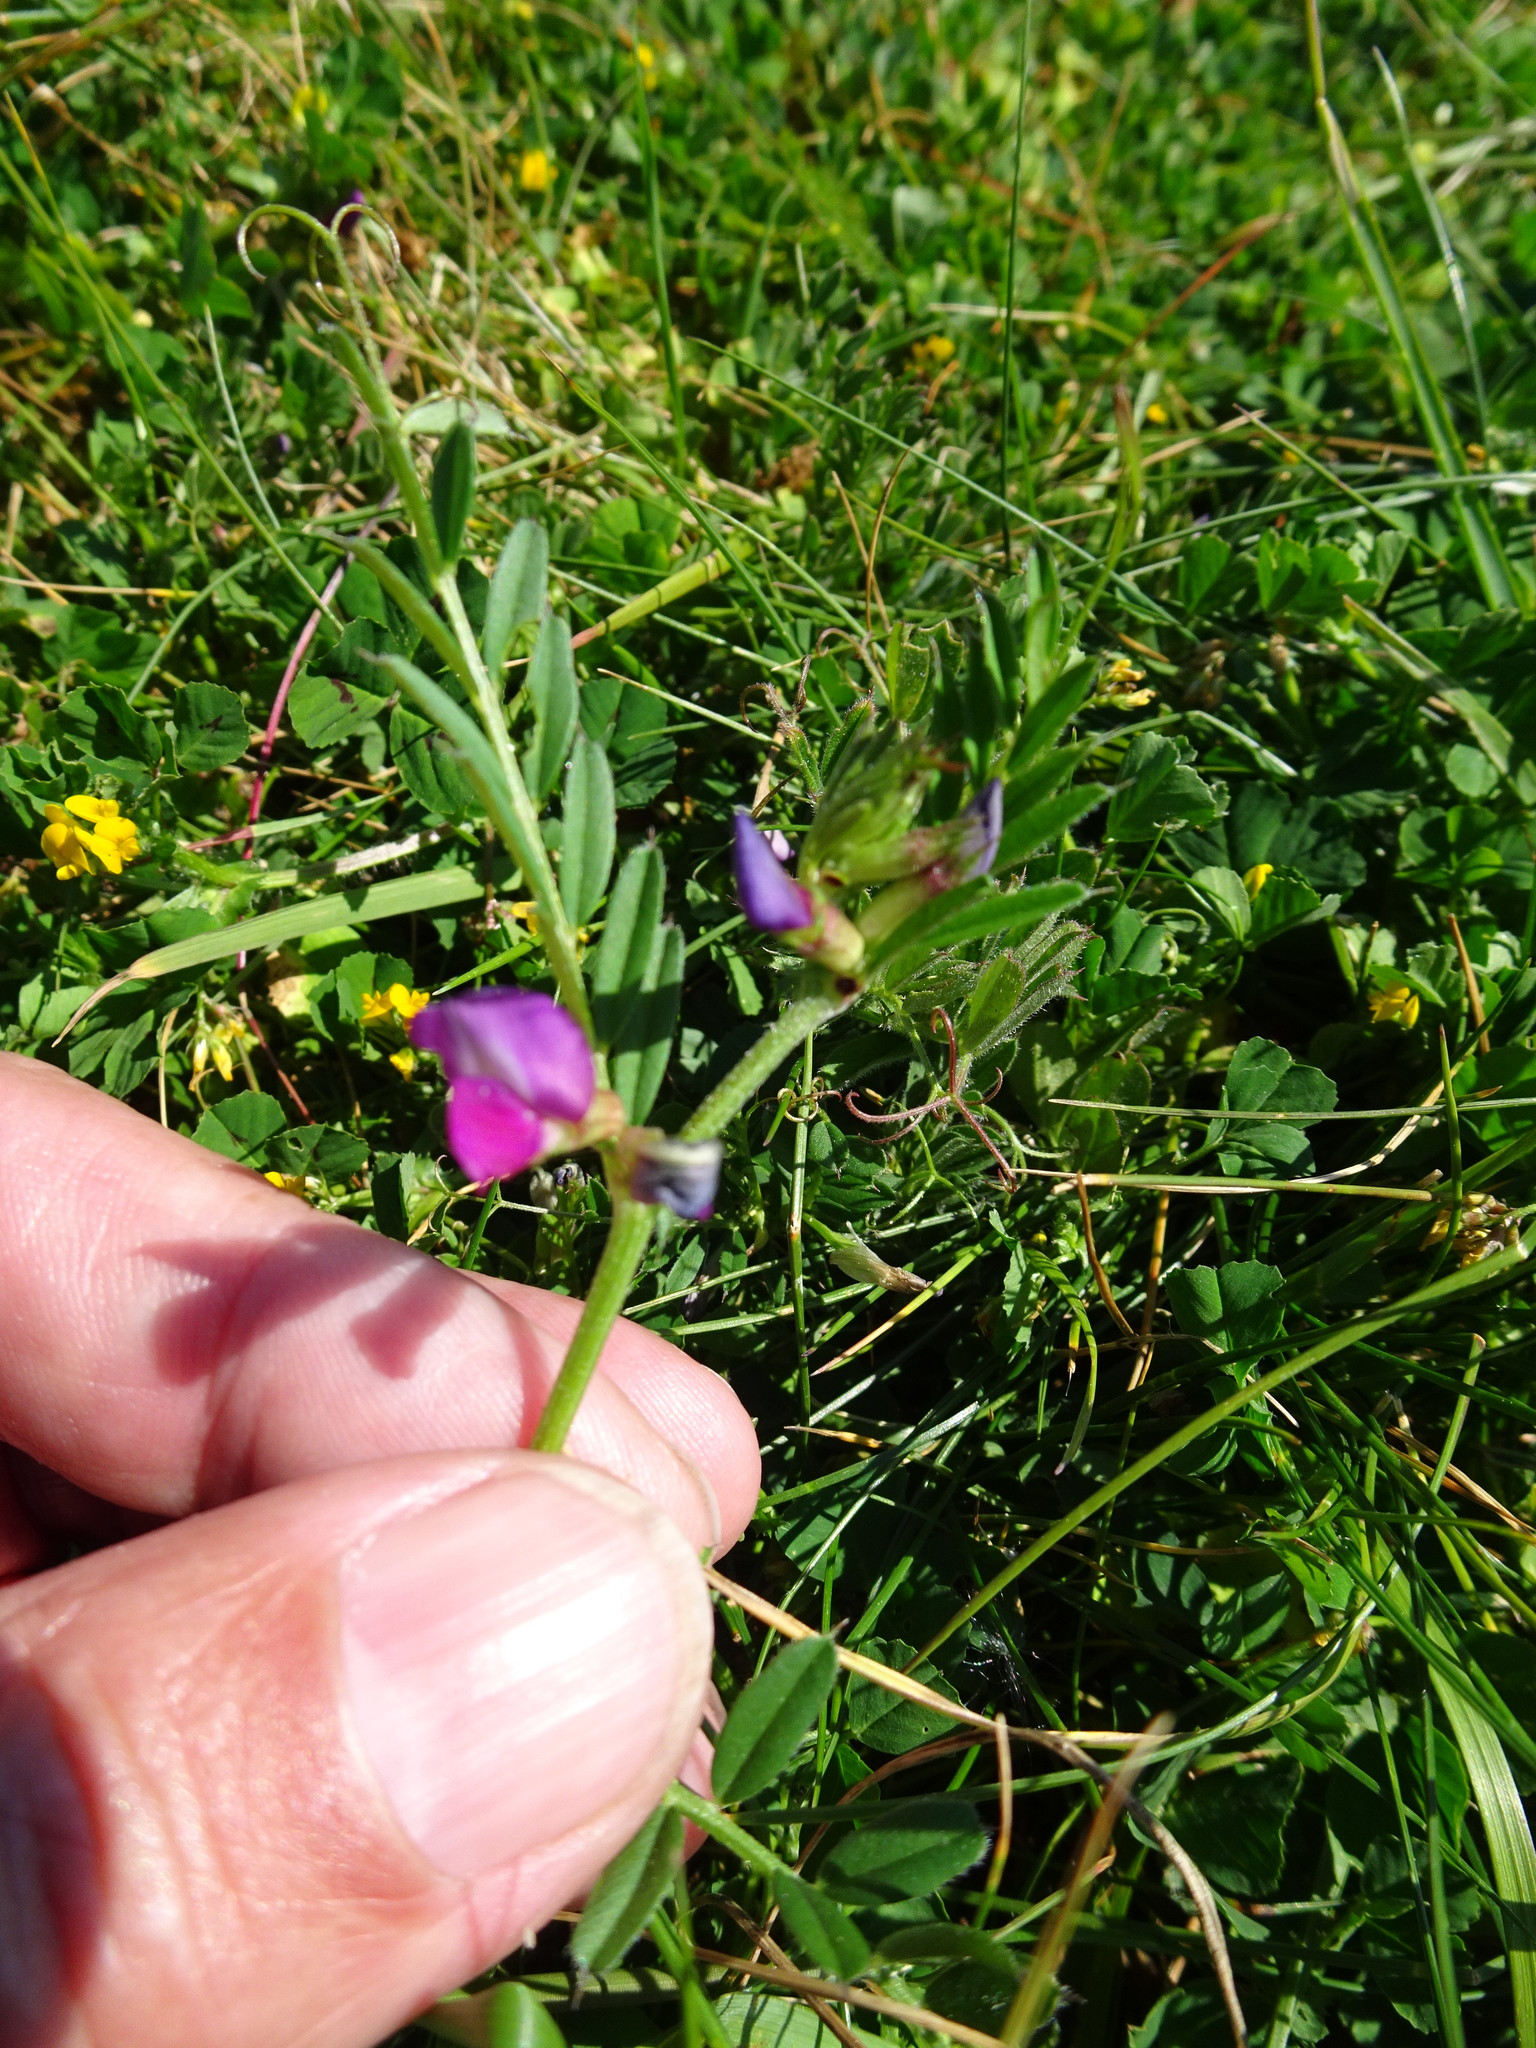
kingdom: Plantae
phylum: Tracheophyta
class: Magnoliopsida
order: Fabales
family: Fabaceae
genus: Vicia
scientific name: Vicia sativa
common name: Garden vetch
